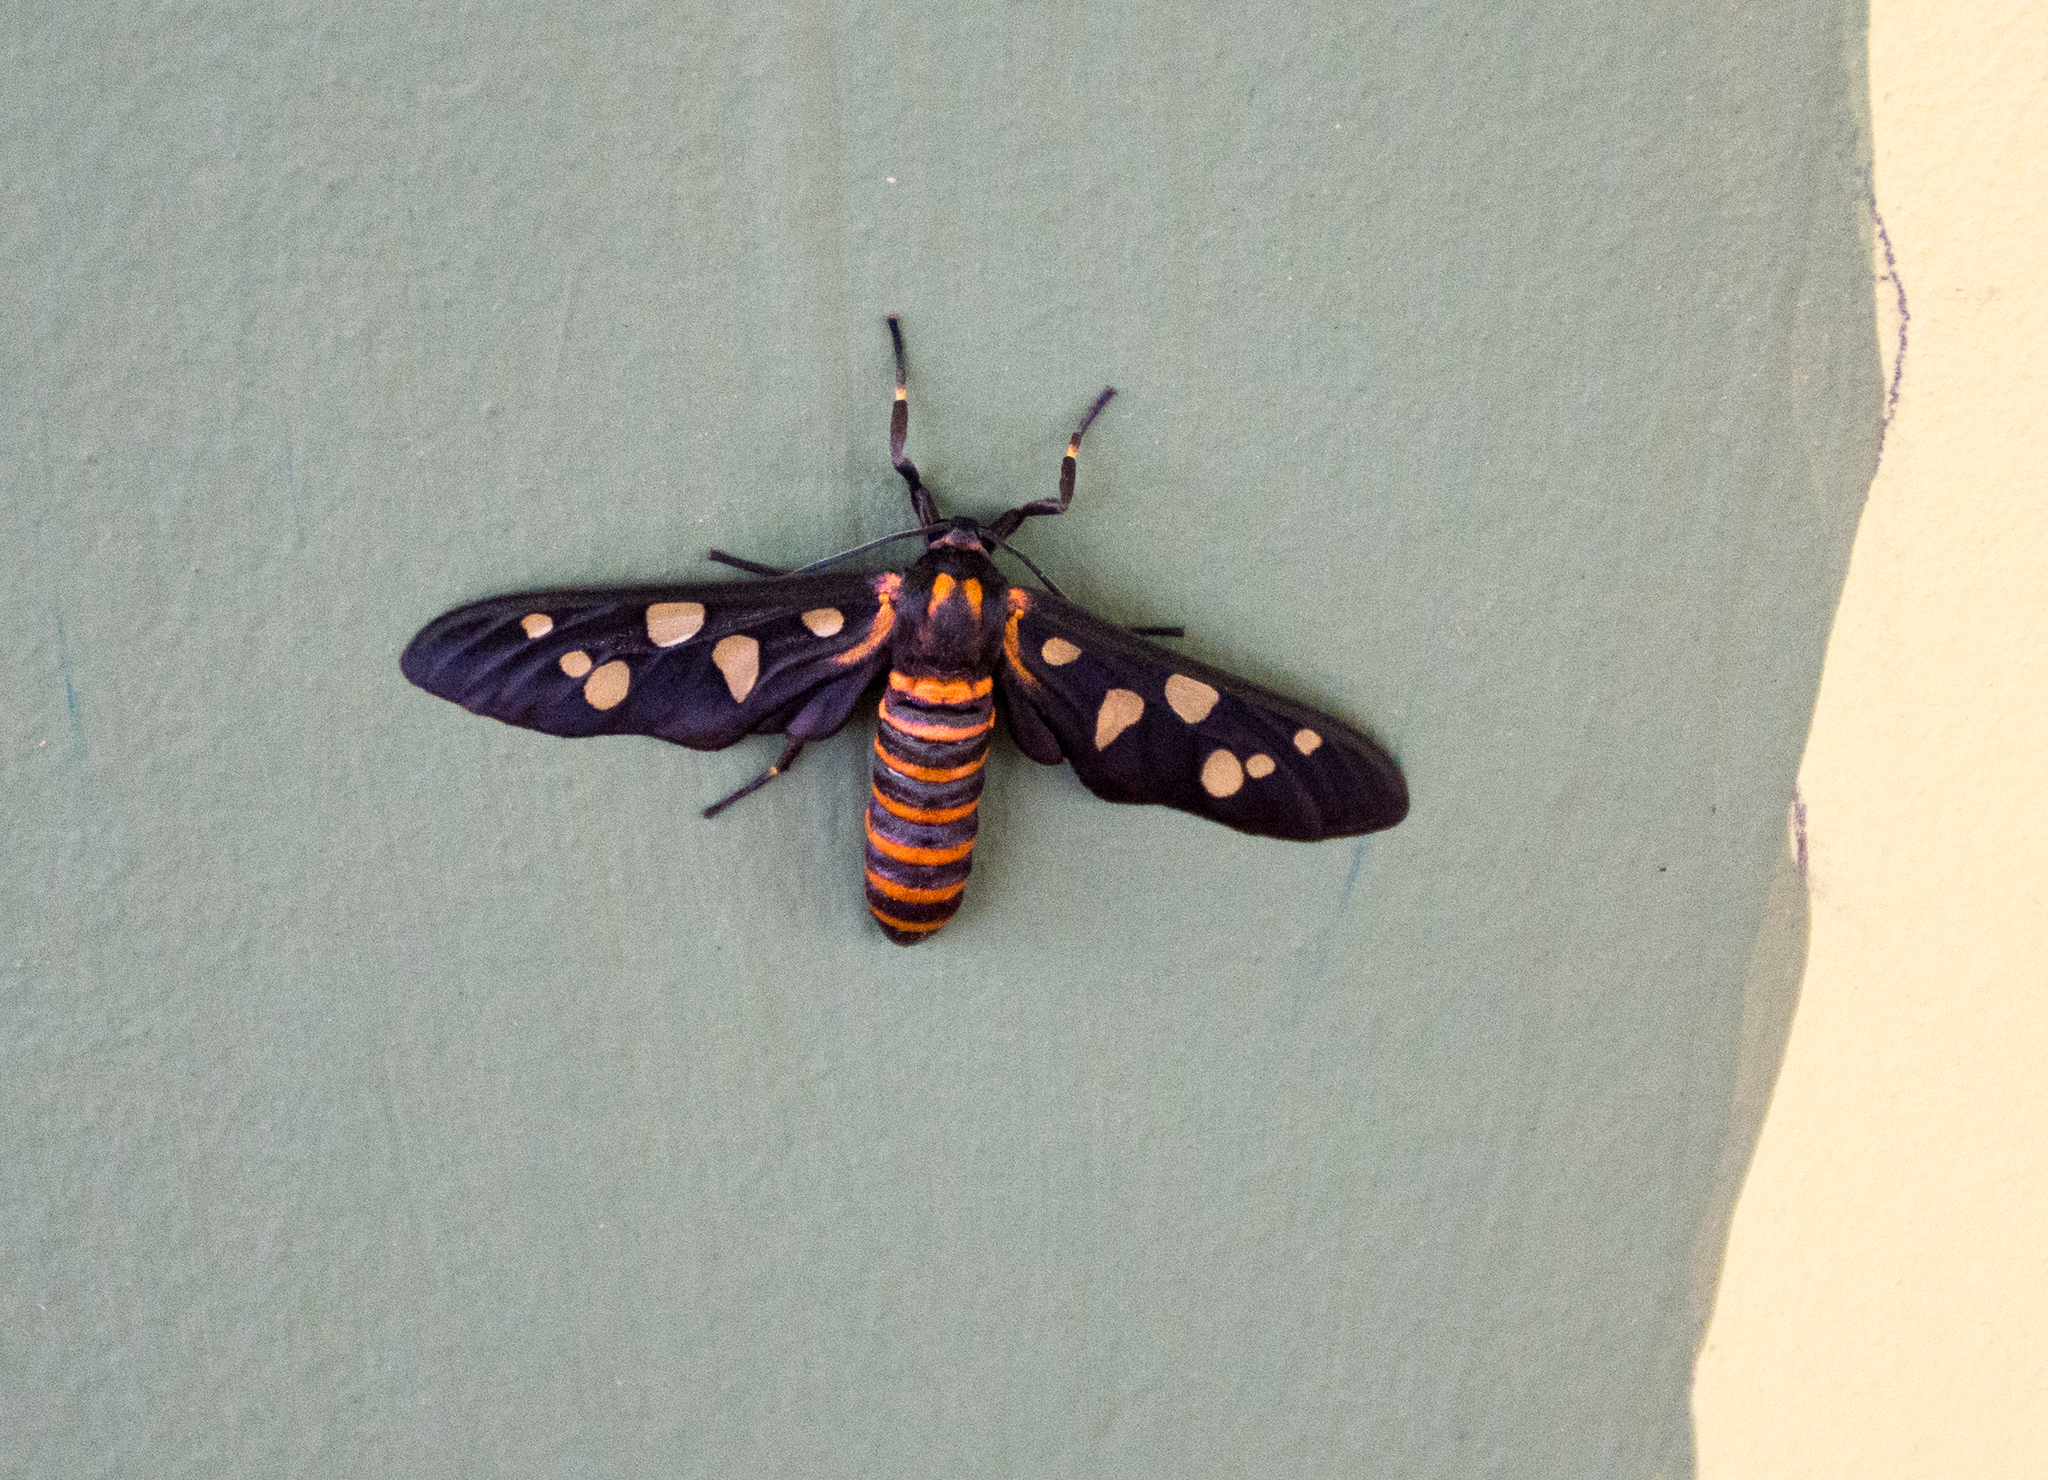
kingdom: Animalia
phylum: Arthropoda
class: Insecta
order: Lepidoptera
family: Erebidae
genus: Amata
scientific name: Amata passalis
